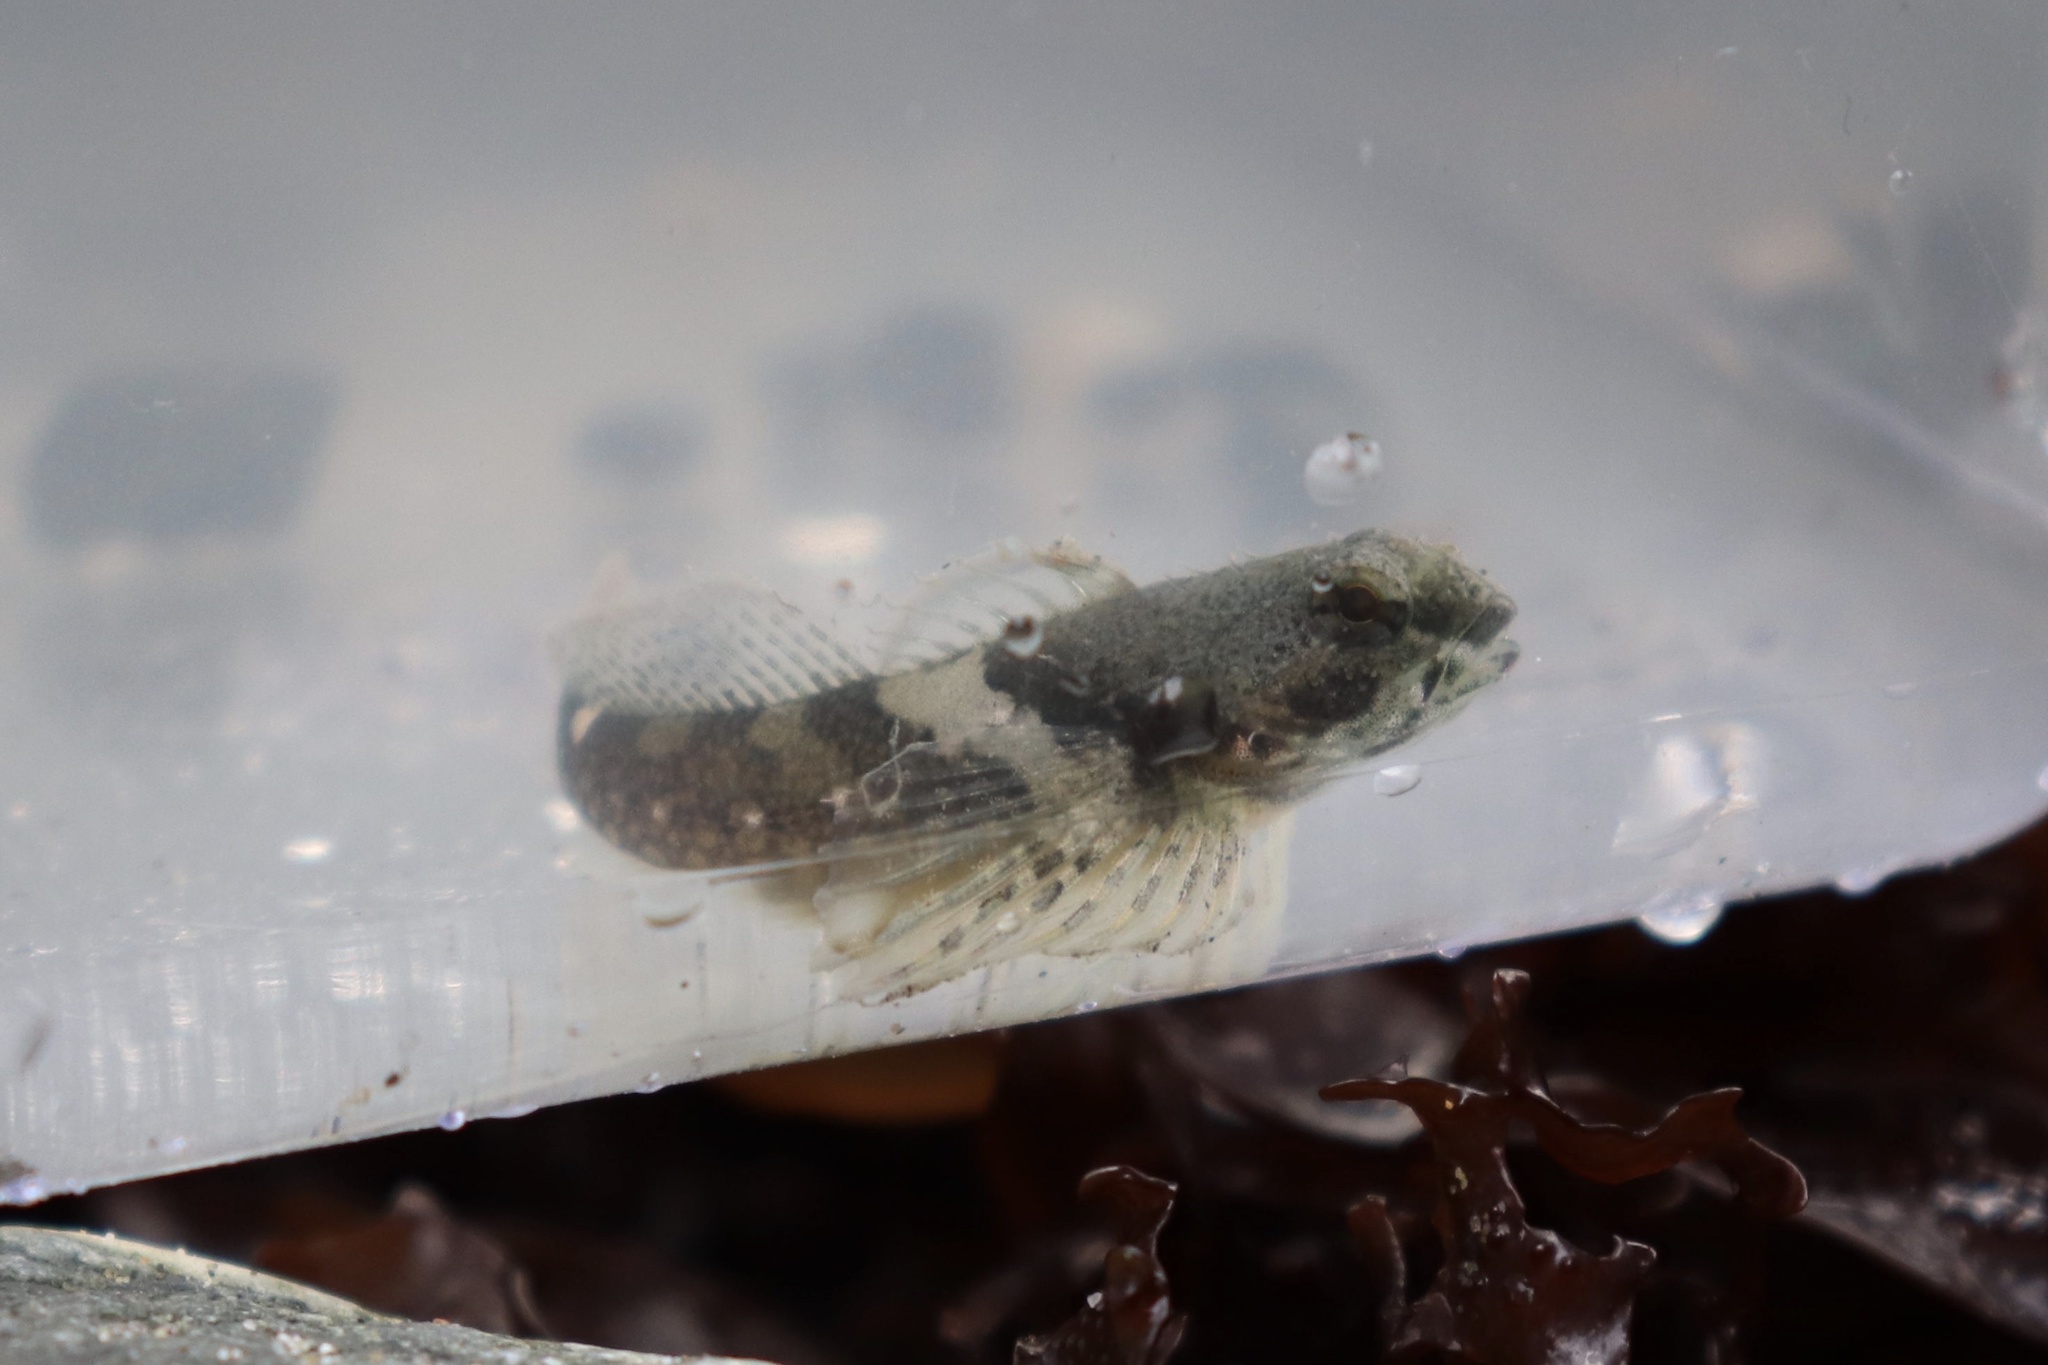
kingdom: Animalia
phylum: Chordata
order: Scorpaeniformes
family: Cottidae
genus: Oligocottus
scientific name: Oligocottus maculosus
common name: Tidepool sculpin
